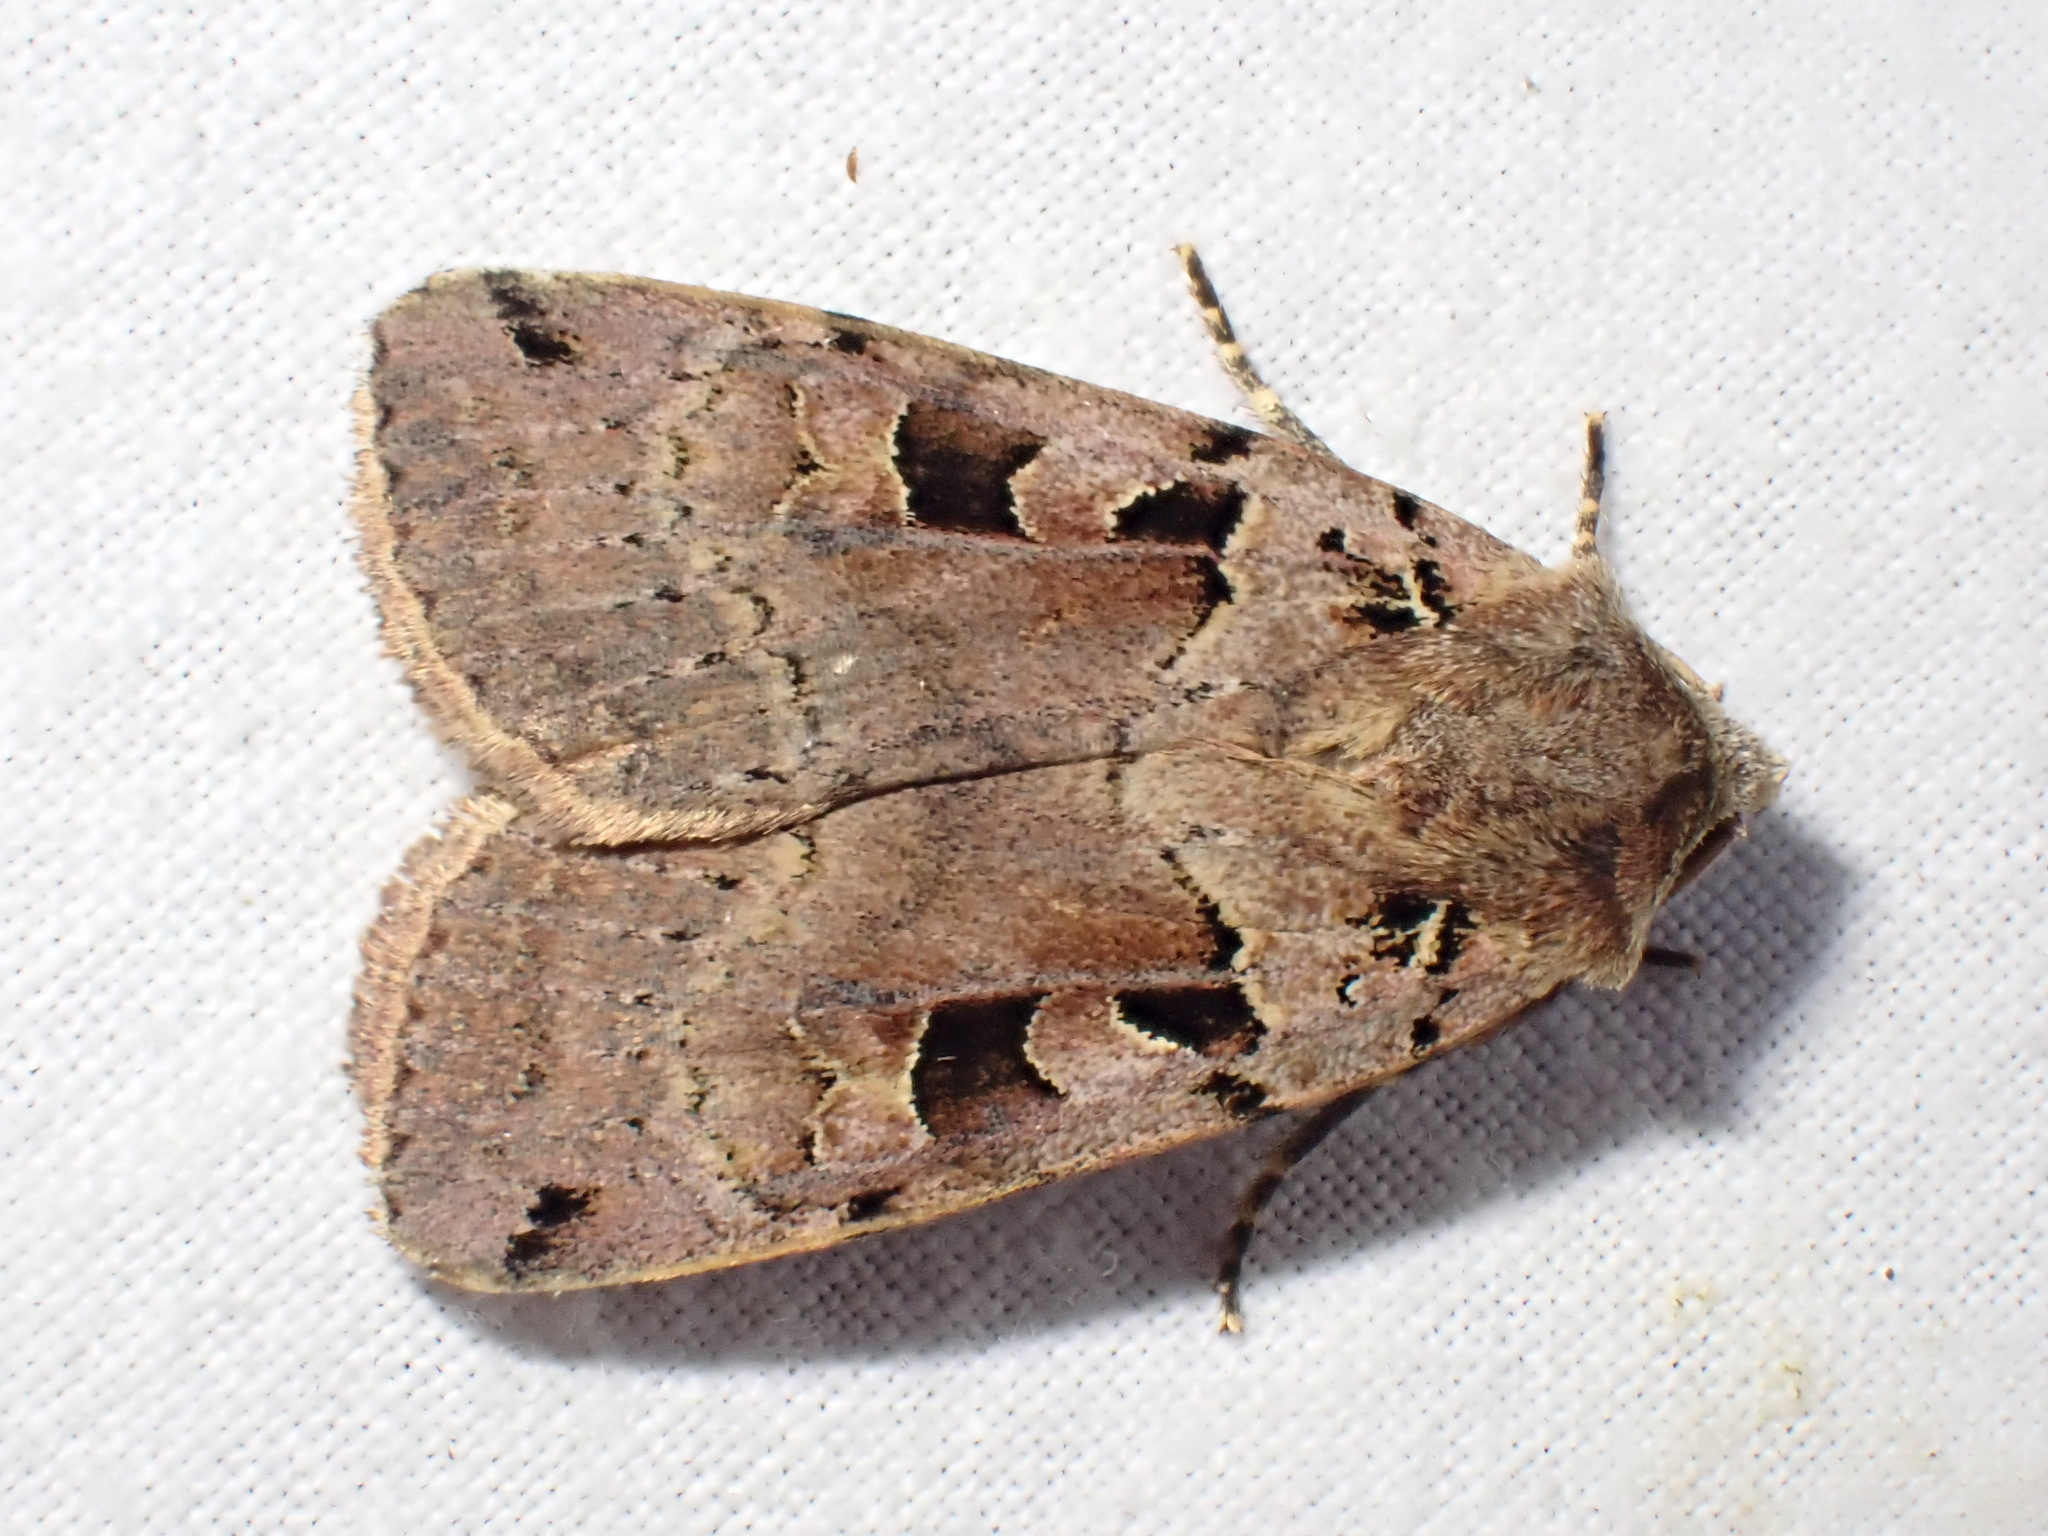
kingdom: Animalia
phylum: Arthropoda
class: Insecta
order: Lepidoptera
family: Noctuidae
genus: Xestia
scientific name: Xestia triangulum
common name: Double square-spot
